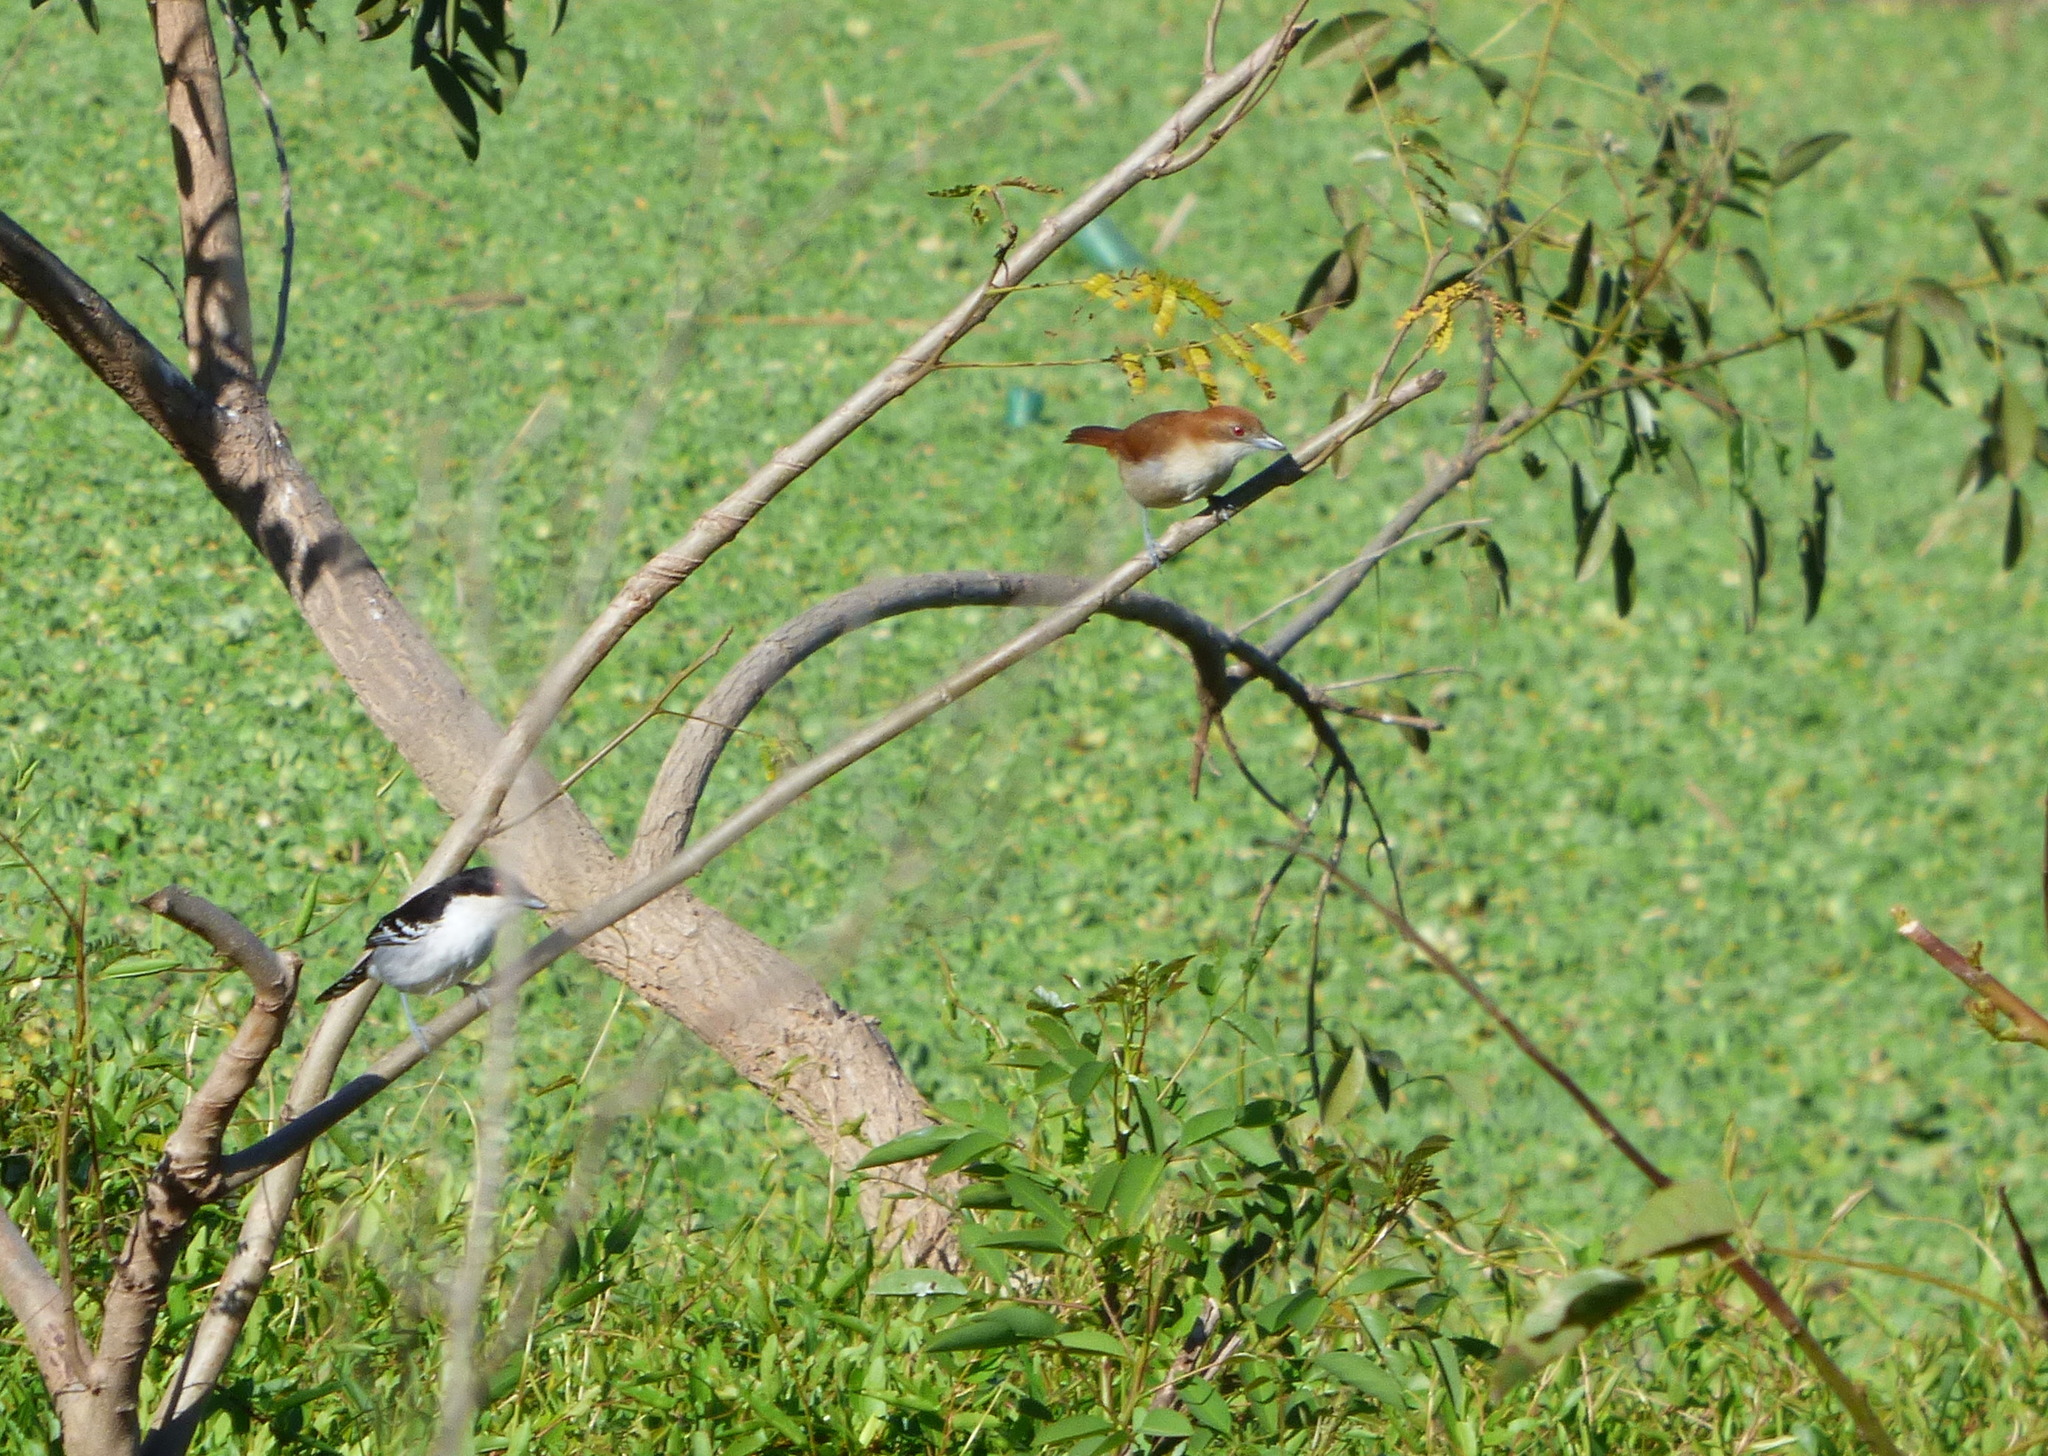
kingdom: Animalia
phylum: Chordata
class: Aves
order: Passeriformes
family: Thamnophilidae
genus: Taraba
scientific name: Taraba major
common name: Great antshrike
